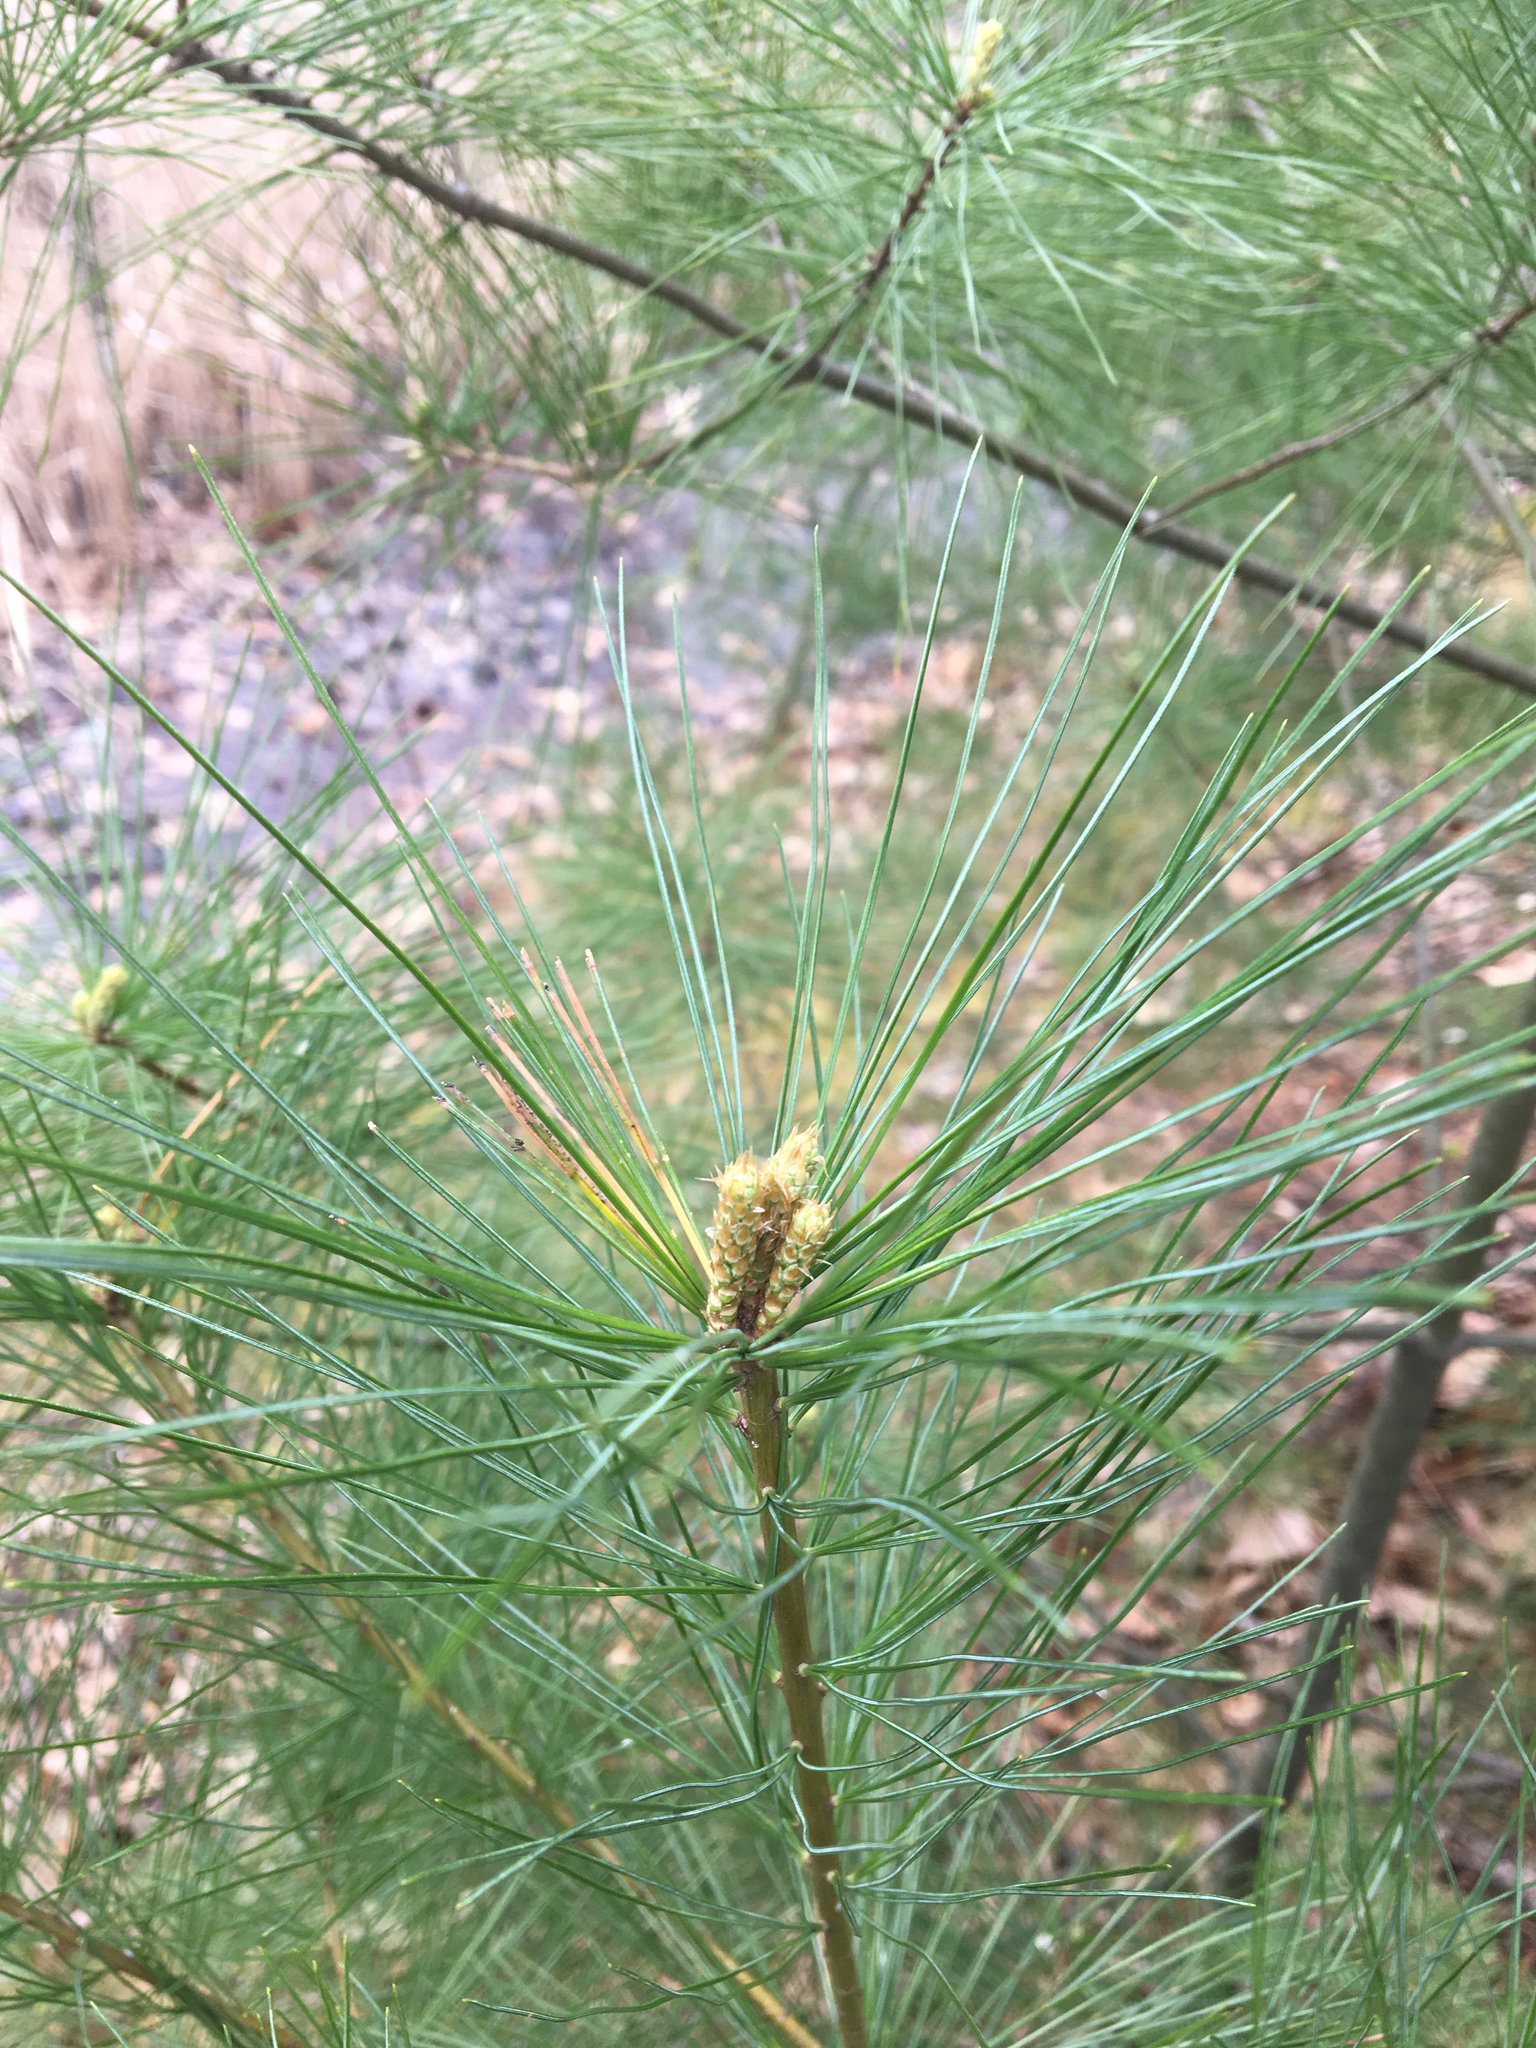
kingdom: Plantae
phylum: Tracheophyta
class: Pinopsida
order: Pinales
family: Pinaceae
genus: Pinus
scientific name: Pinus strobus
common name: Weymouth pine
